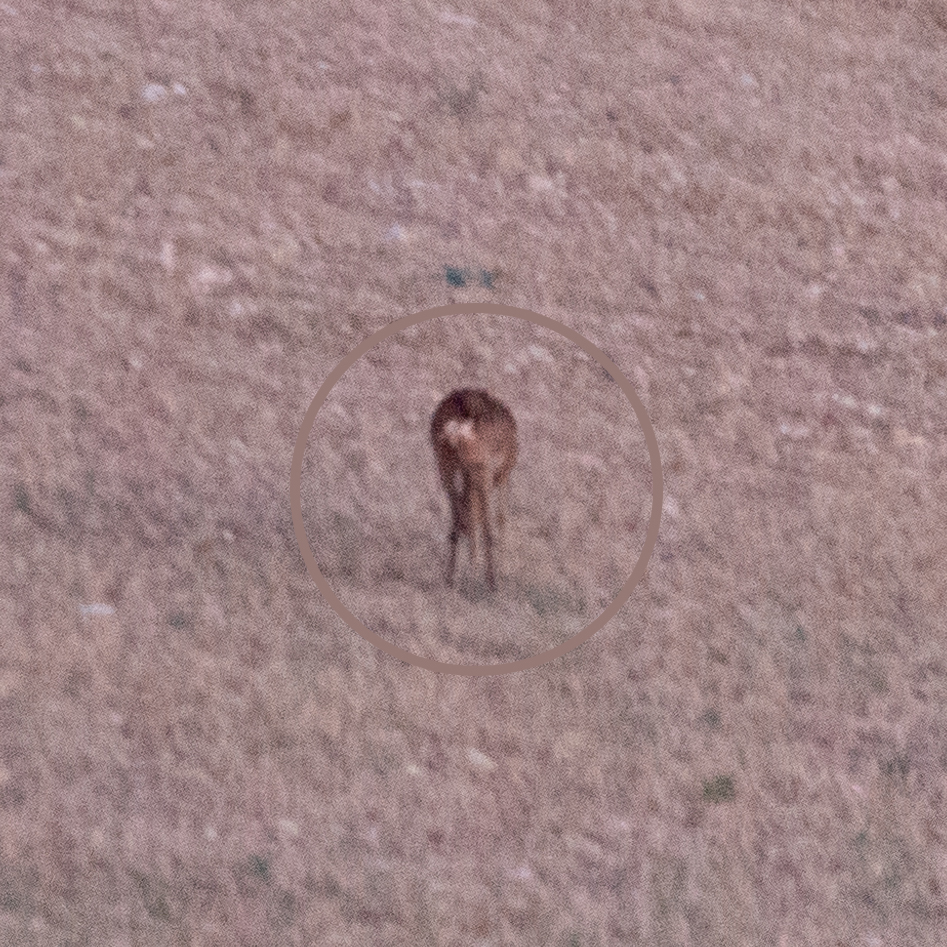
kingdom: Animalia
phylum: Chordata
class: Mammalia
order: Artiodactyla
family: Cervidae
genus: Capreolus
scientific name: Capreolus capreolus
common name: Western roe deer
